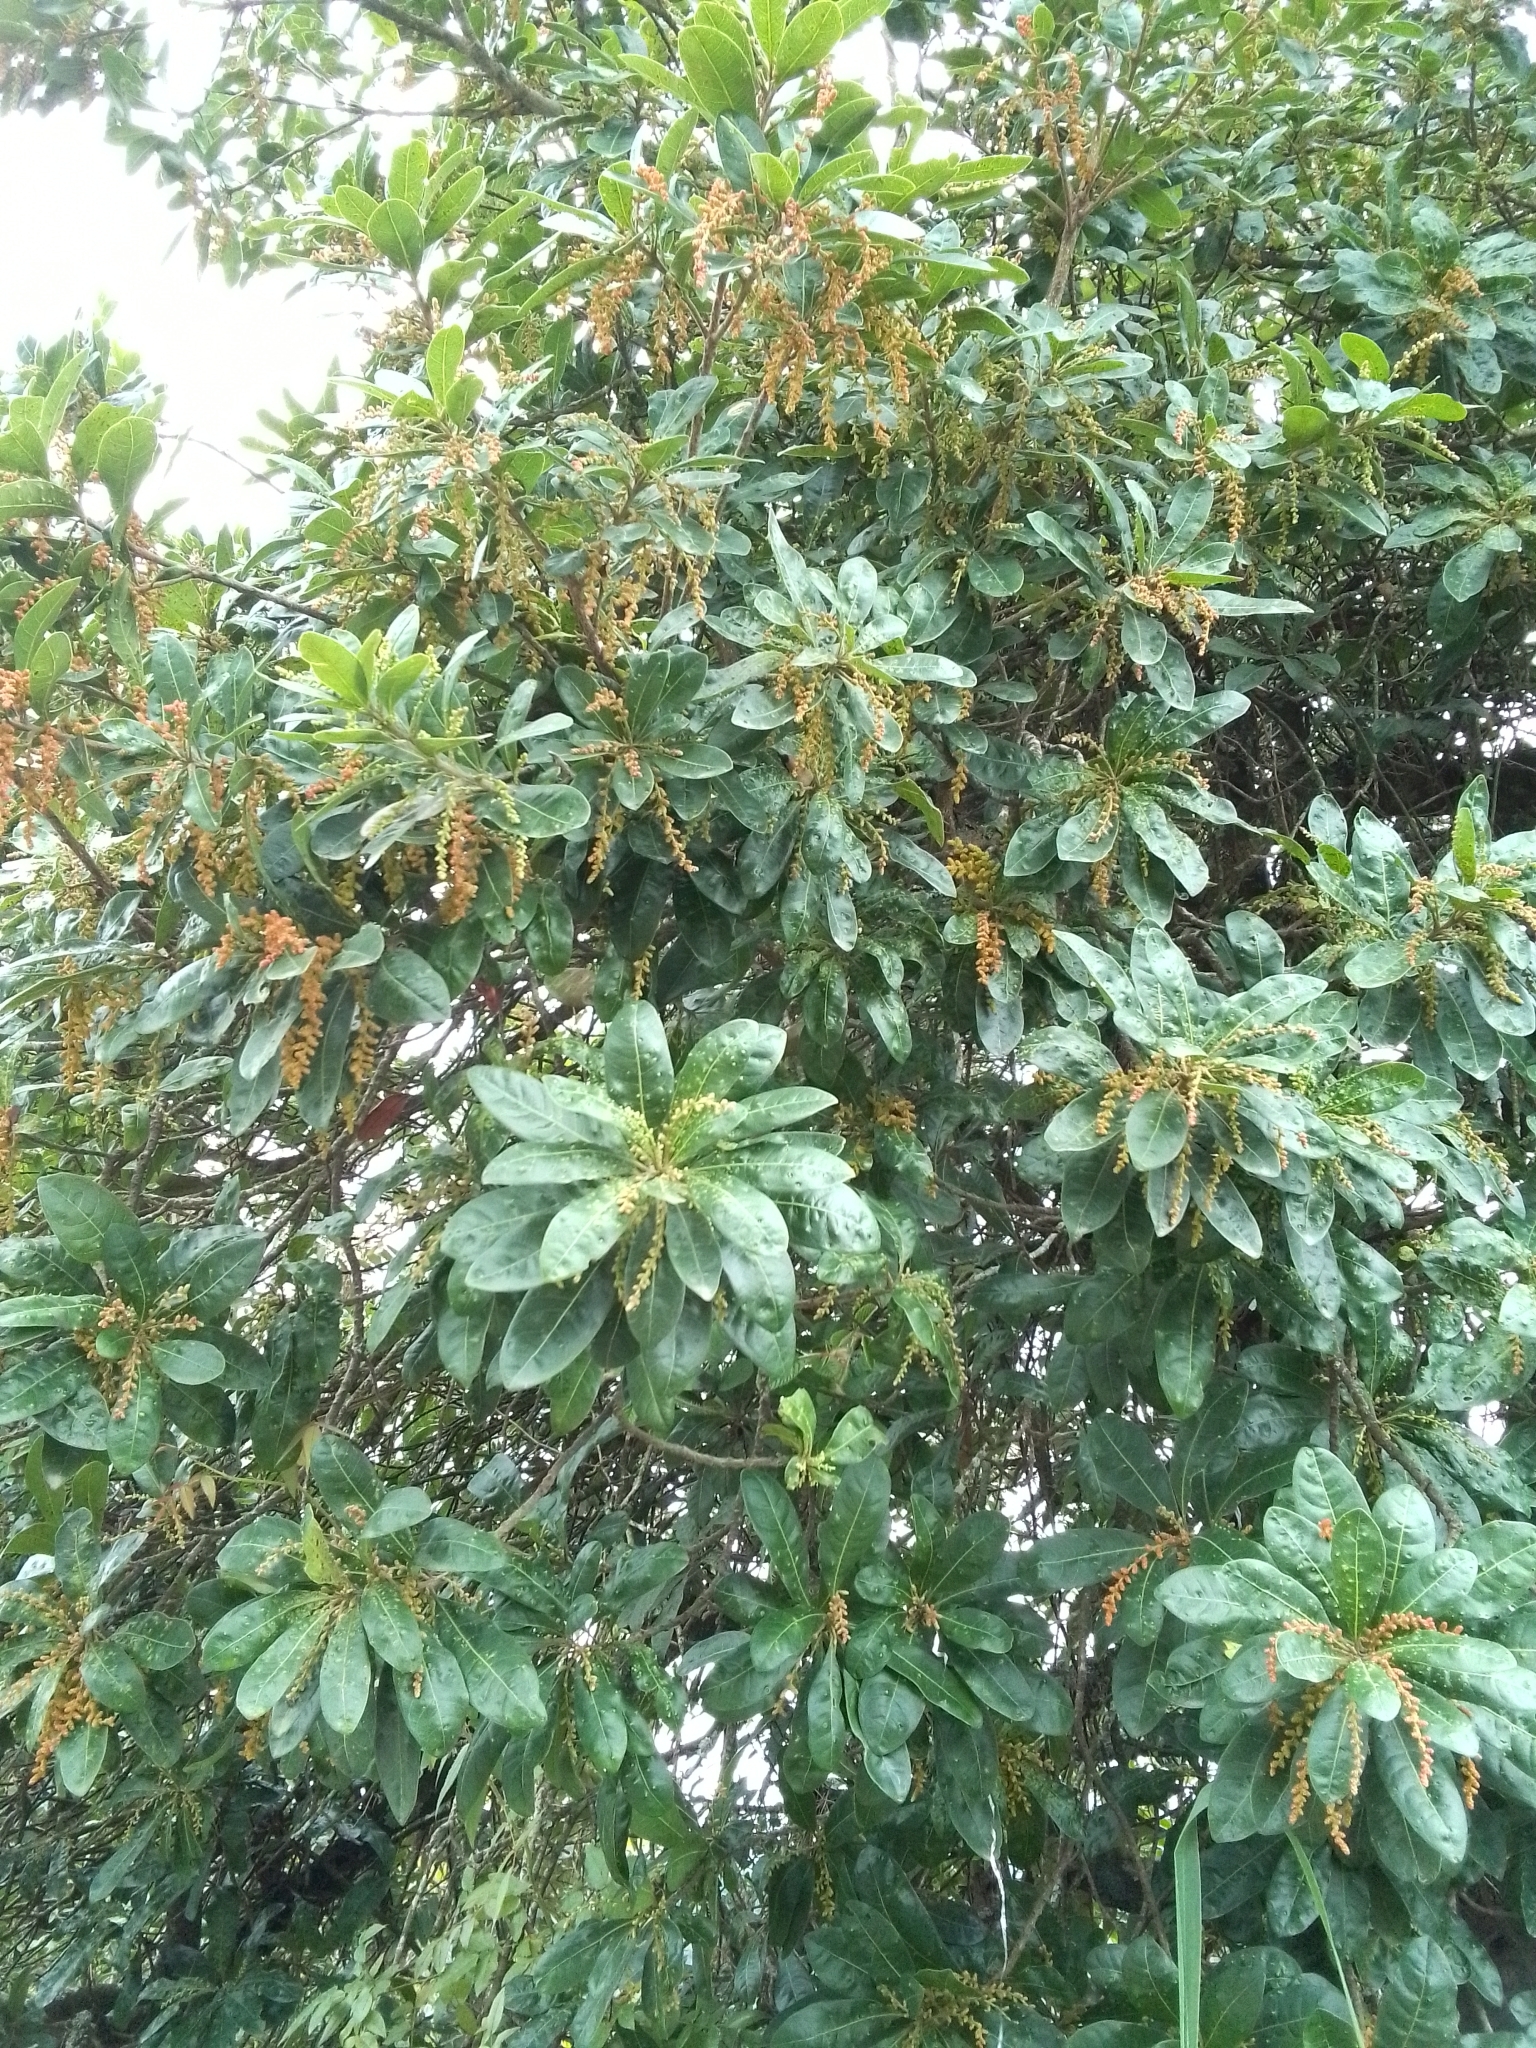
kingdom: Plantae
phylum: Tracheophyta
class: Magnoliopsida
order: Fagales
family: Myricaceae
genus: Morella
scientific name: Morella esculenta
